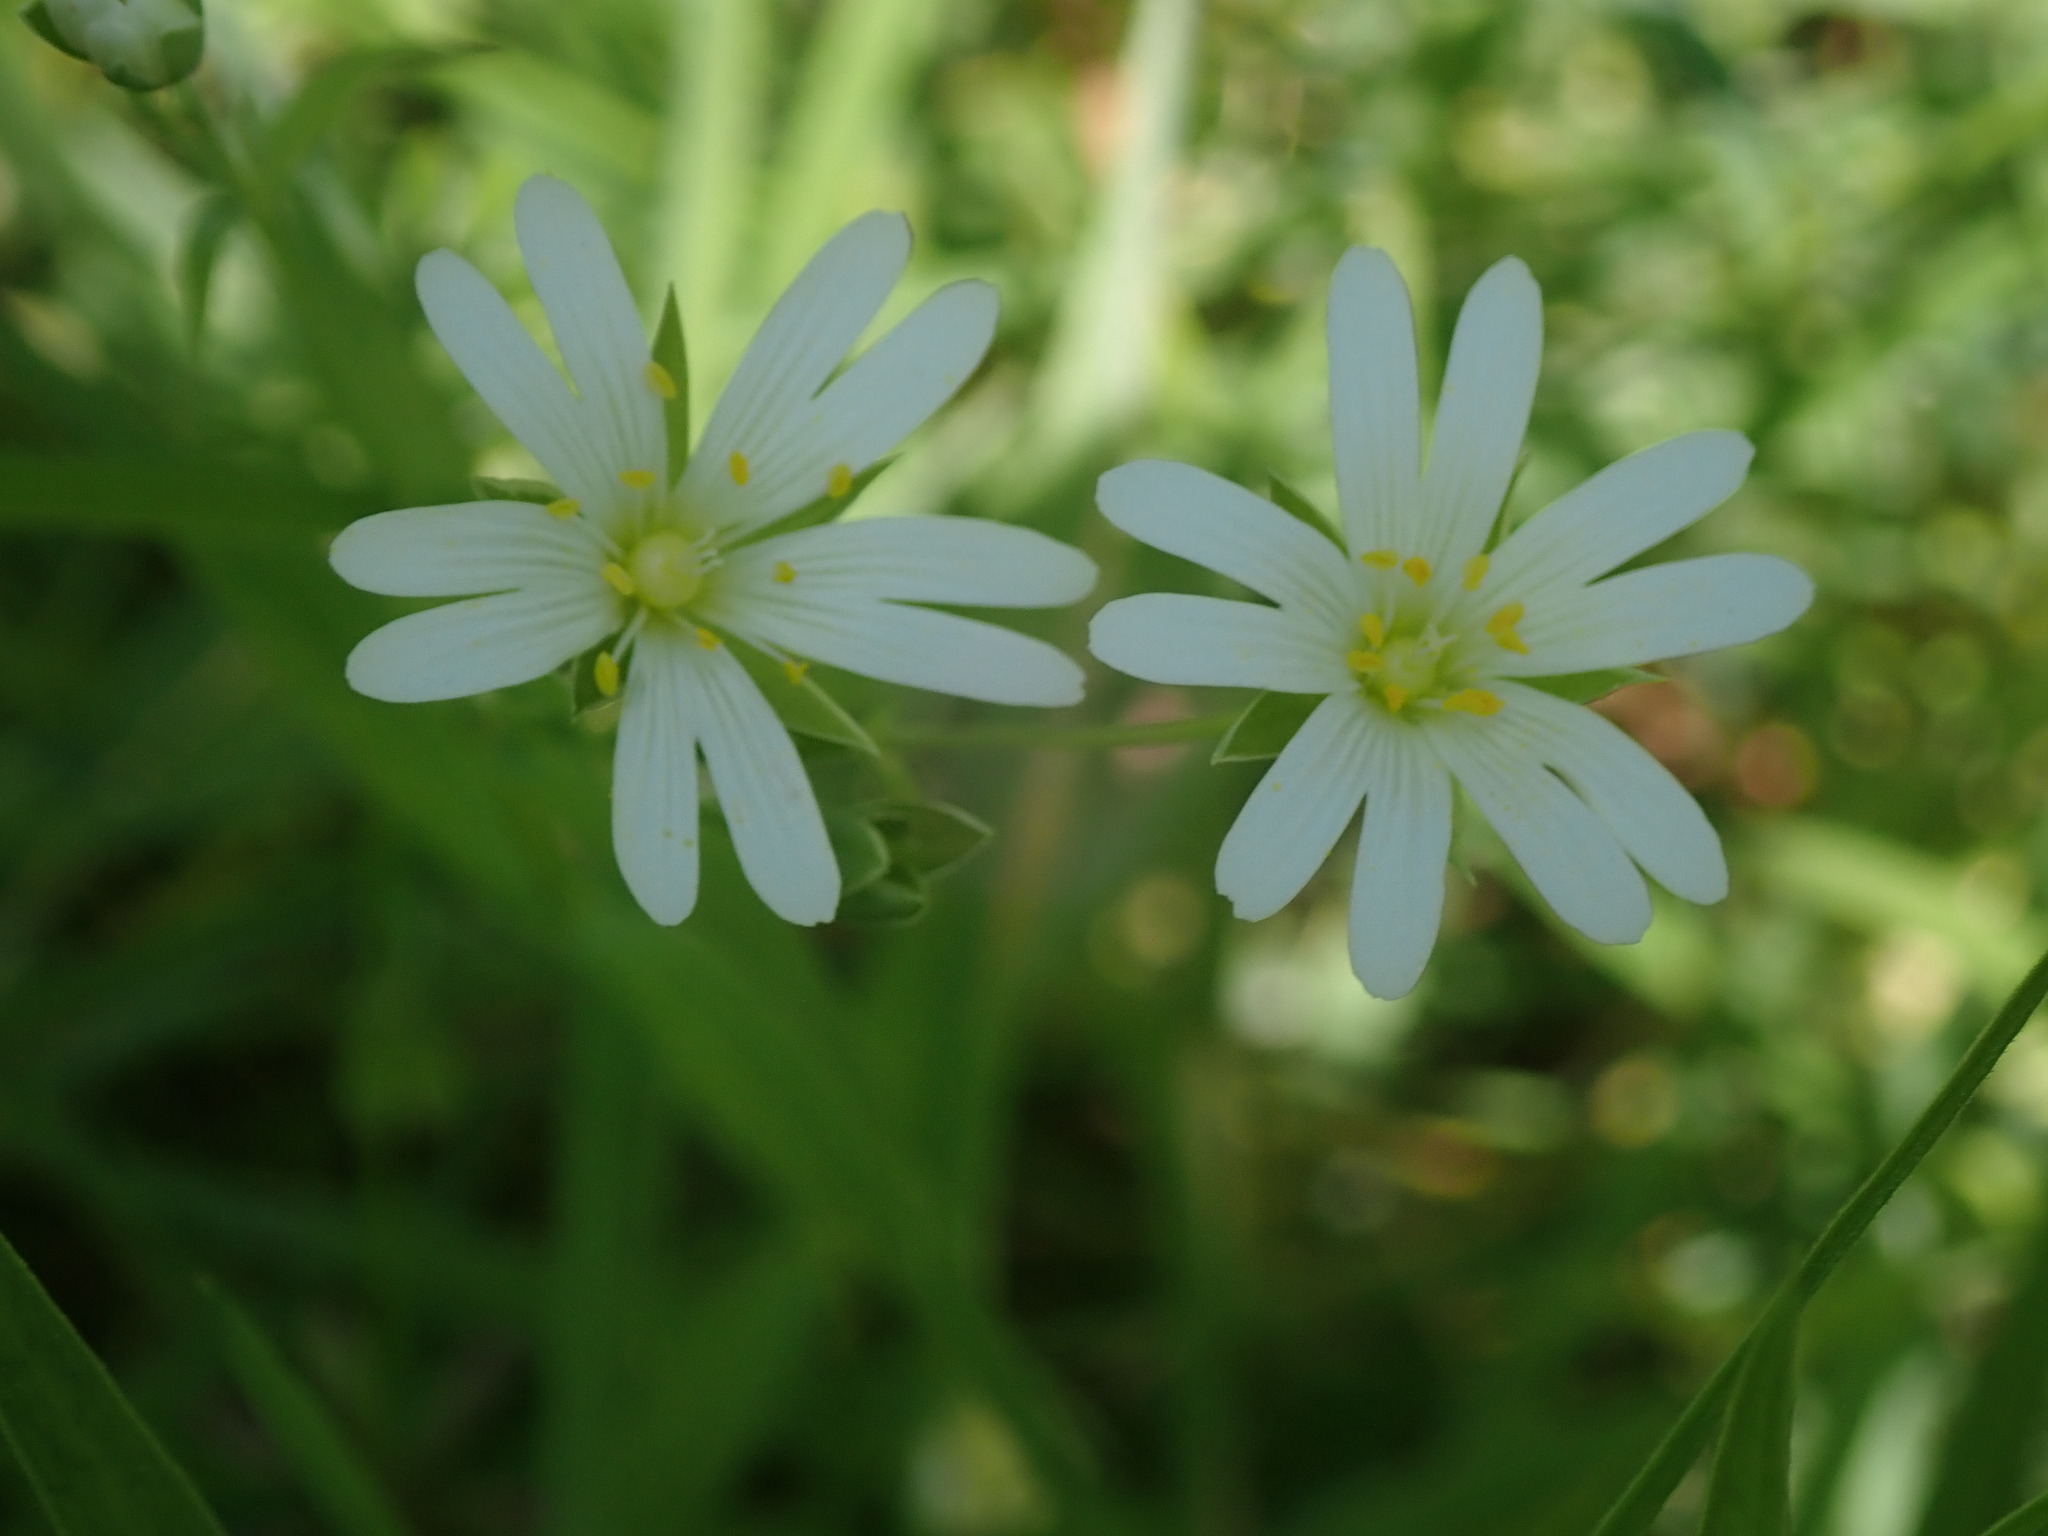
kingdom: Plantae
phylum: Tracheophyta
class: Magnoliopsida
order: Caryophyllales
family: Caryophyllaceae
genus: Rabelera
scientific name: Rabelera holostea
